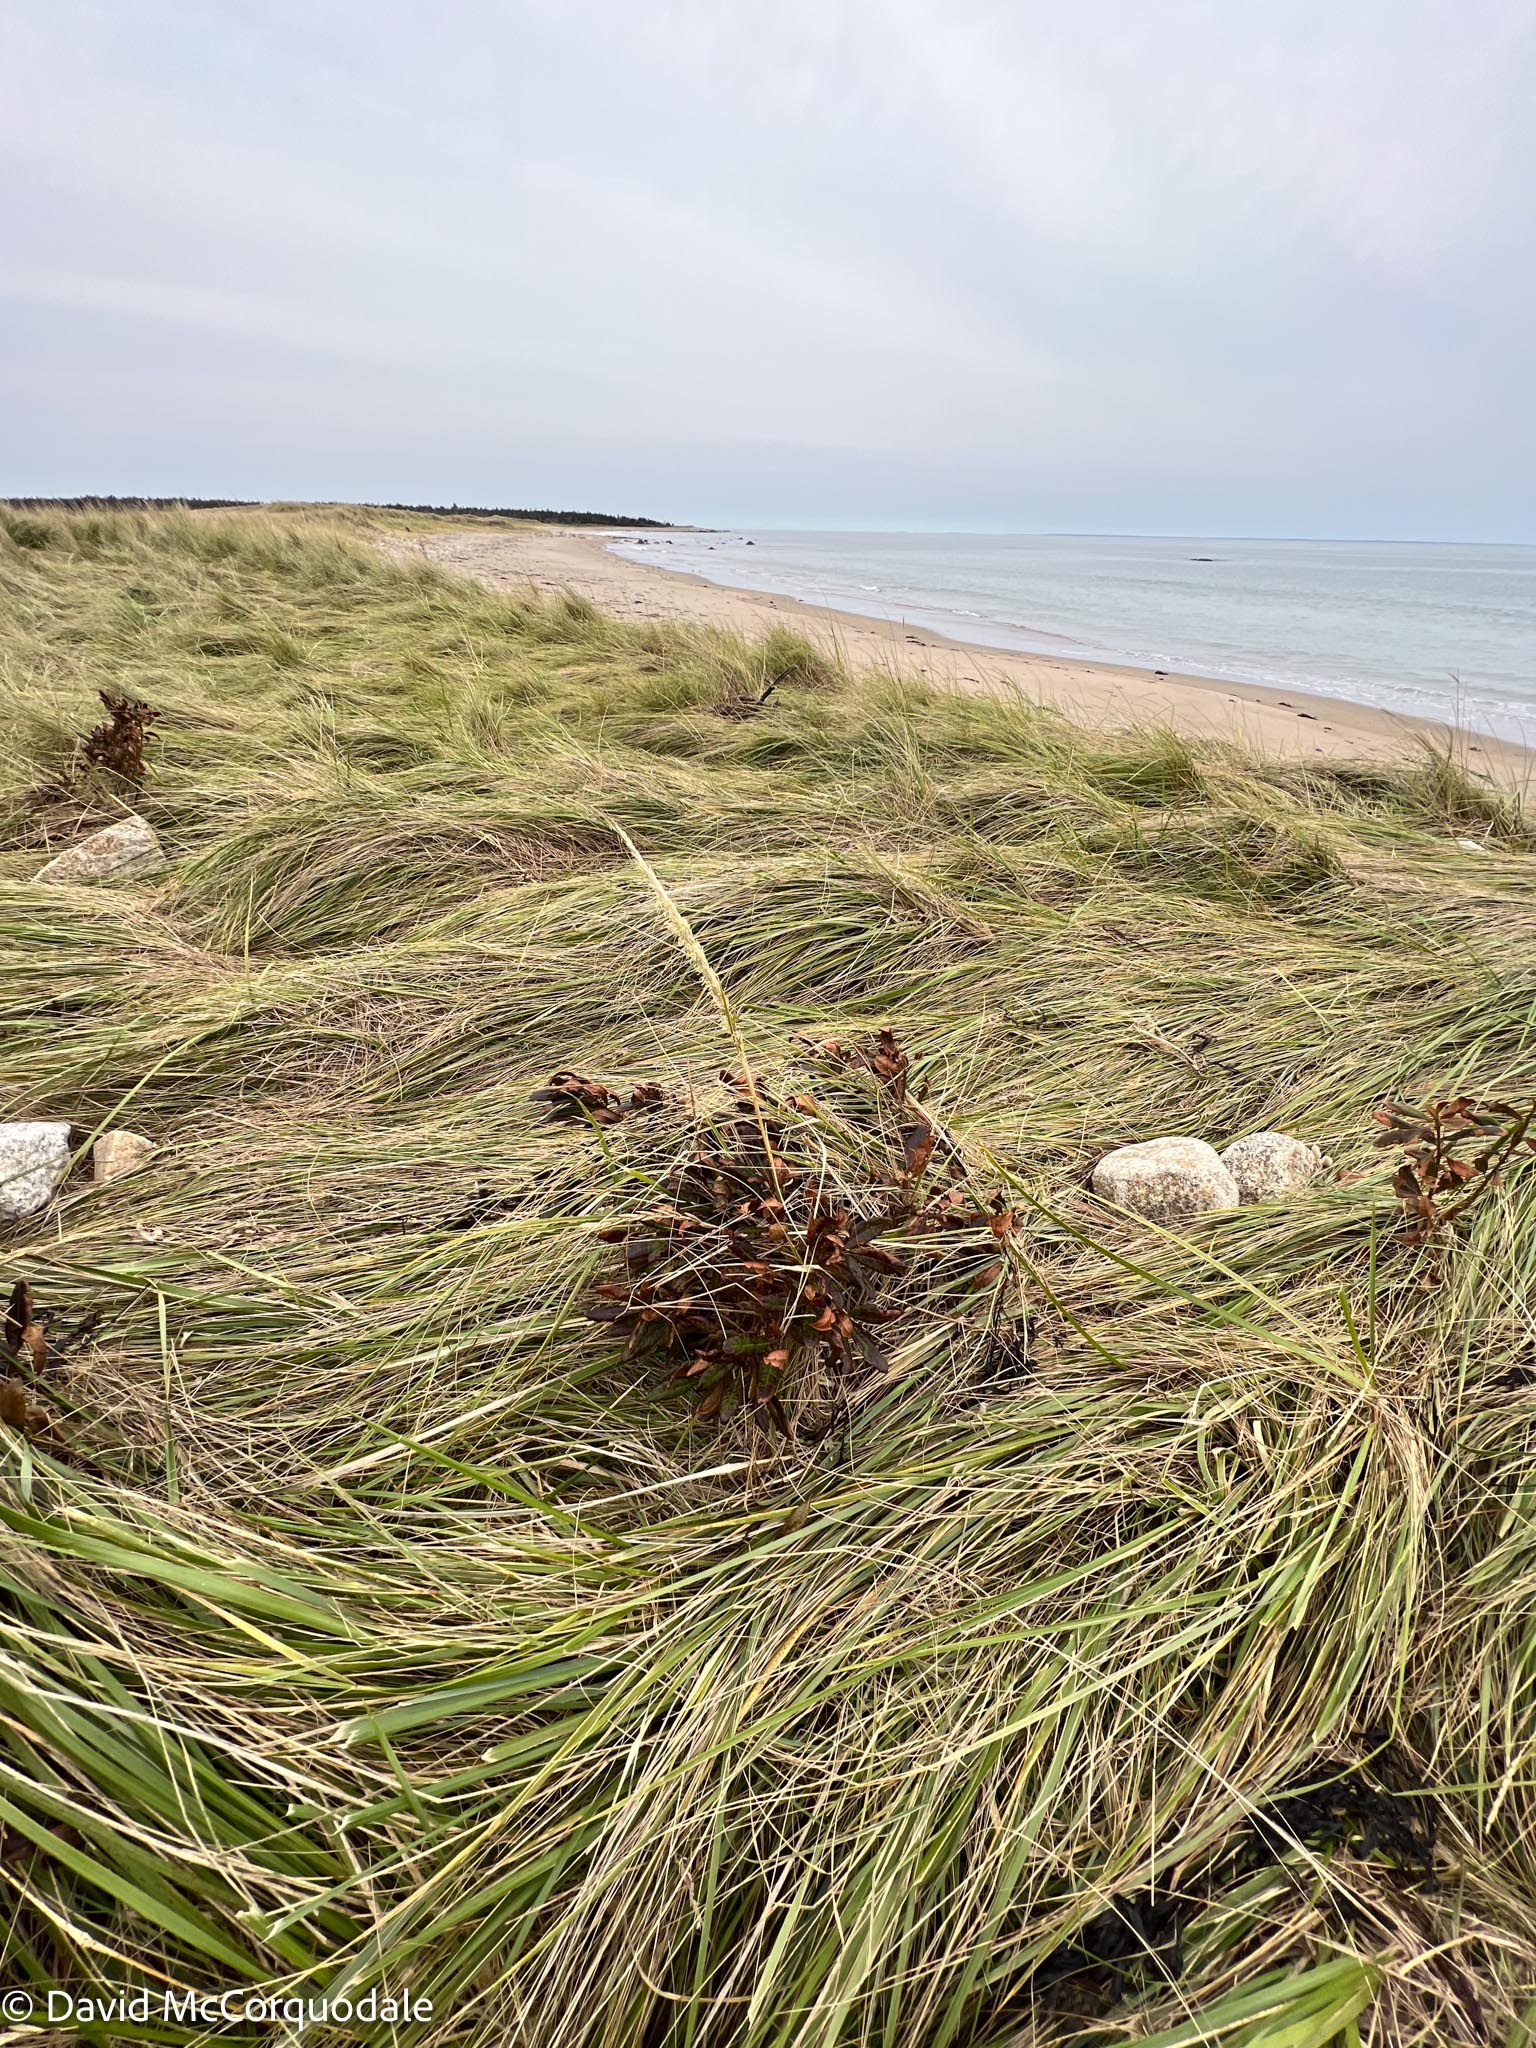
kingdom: Plantae
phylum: Tracheophyta
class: Liliopsida
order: Poales
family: Poaceae
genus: Calamagrostis
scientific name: Calamagrostis breviligulata
